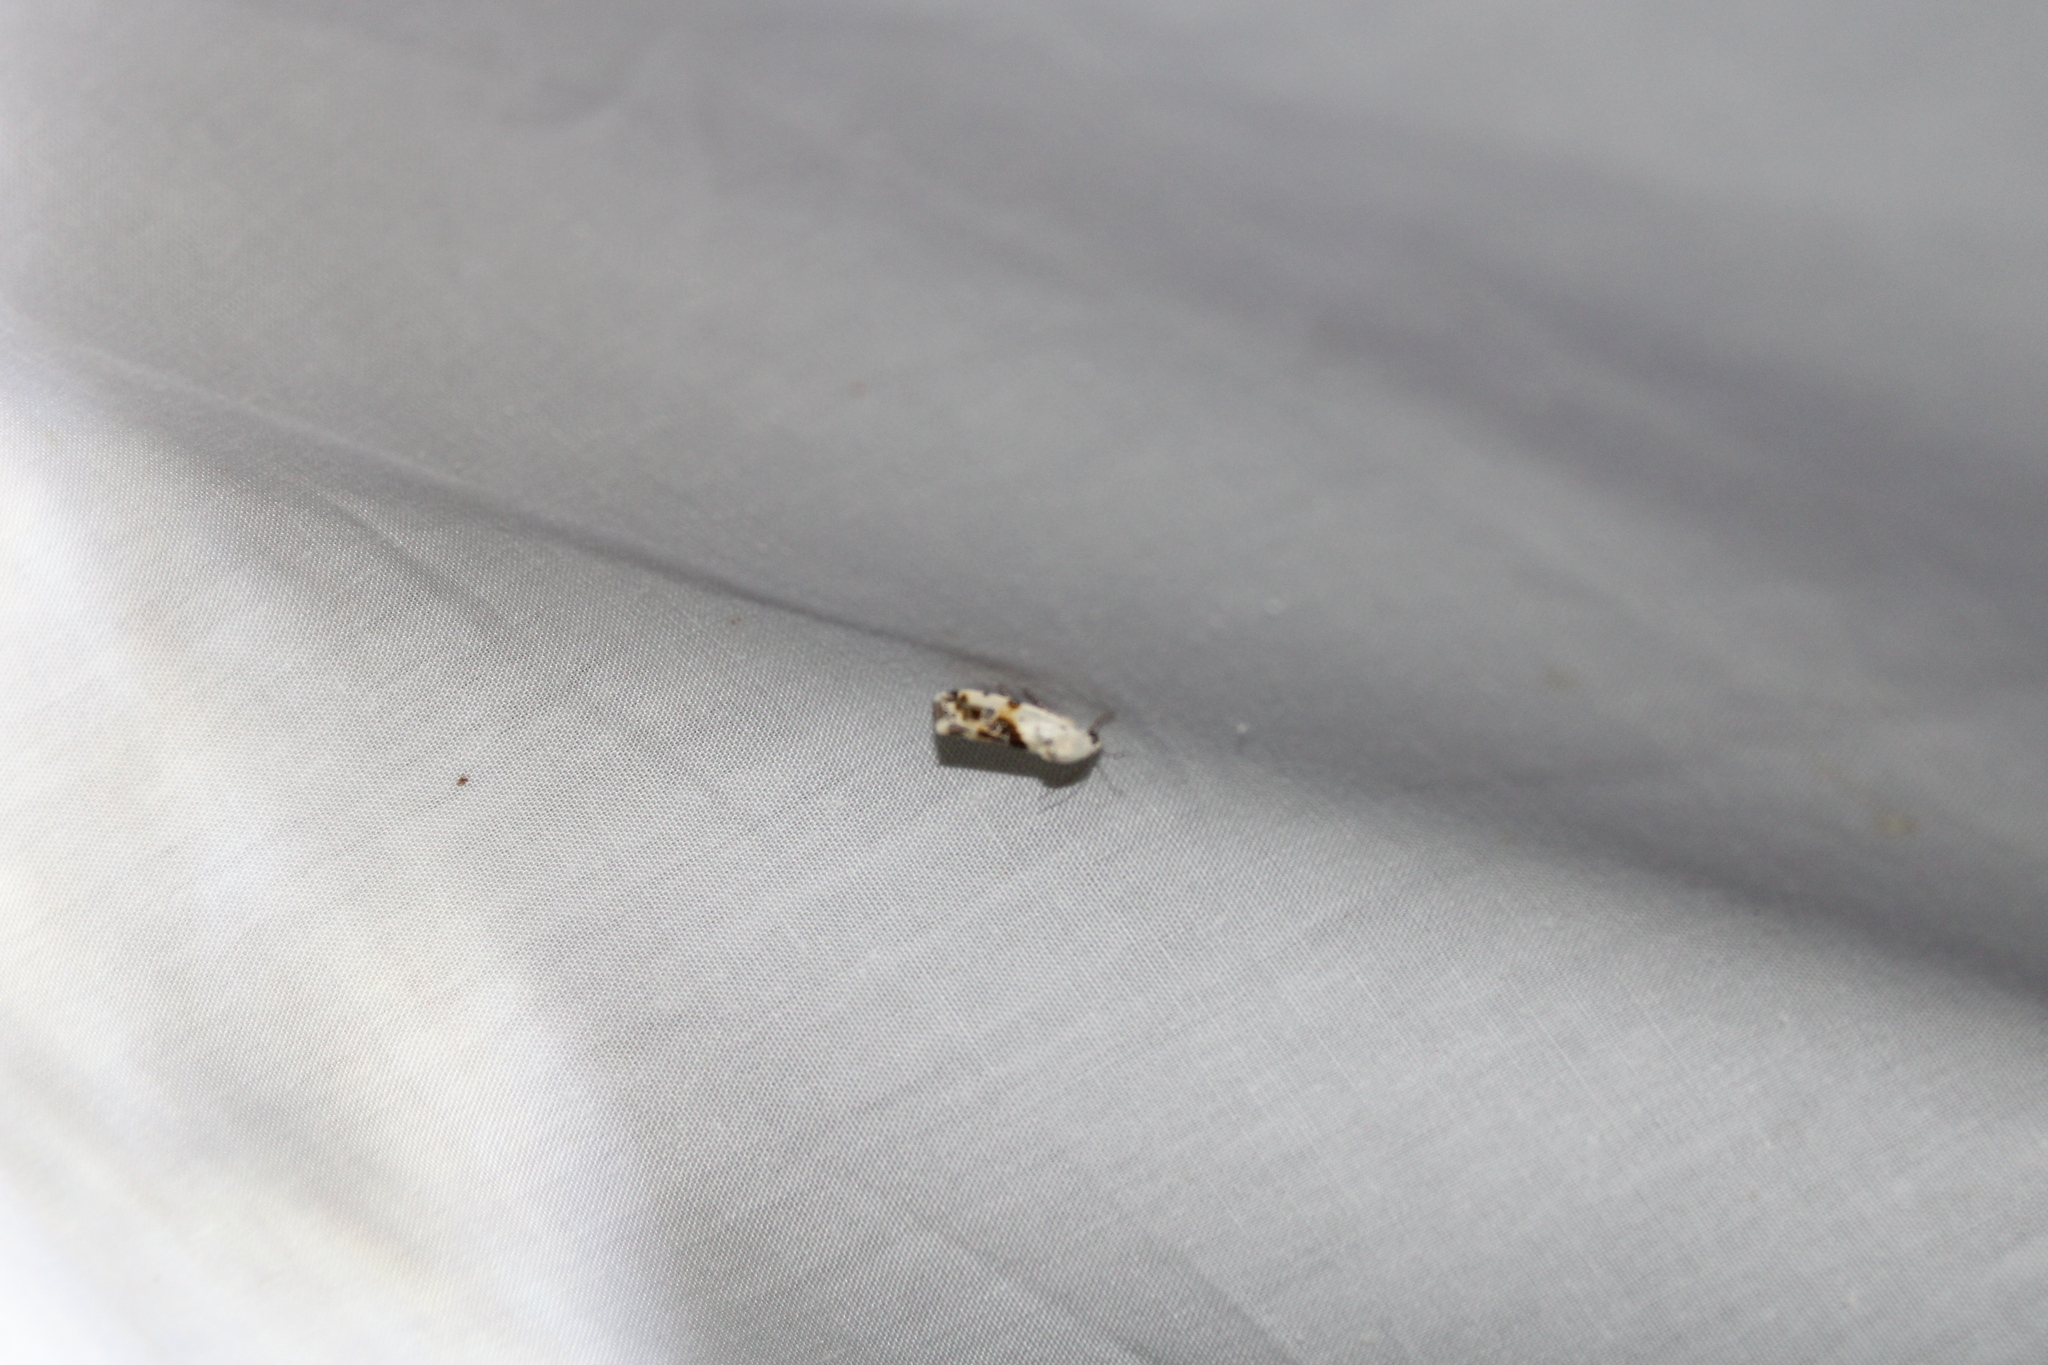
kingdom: Animalia
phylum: Arthropoda
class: Insecta
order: Lepidoptera
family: Noctuidae
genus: Acontia
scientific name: Acontia candefacta
